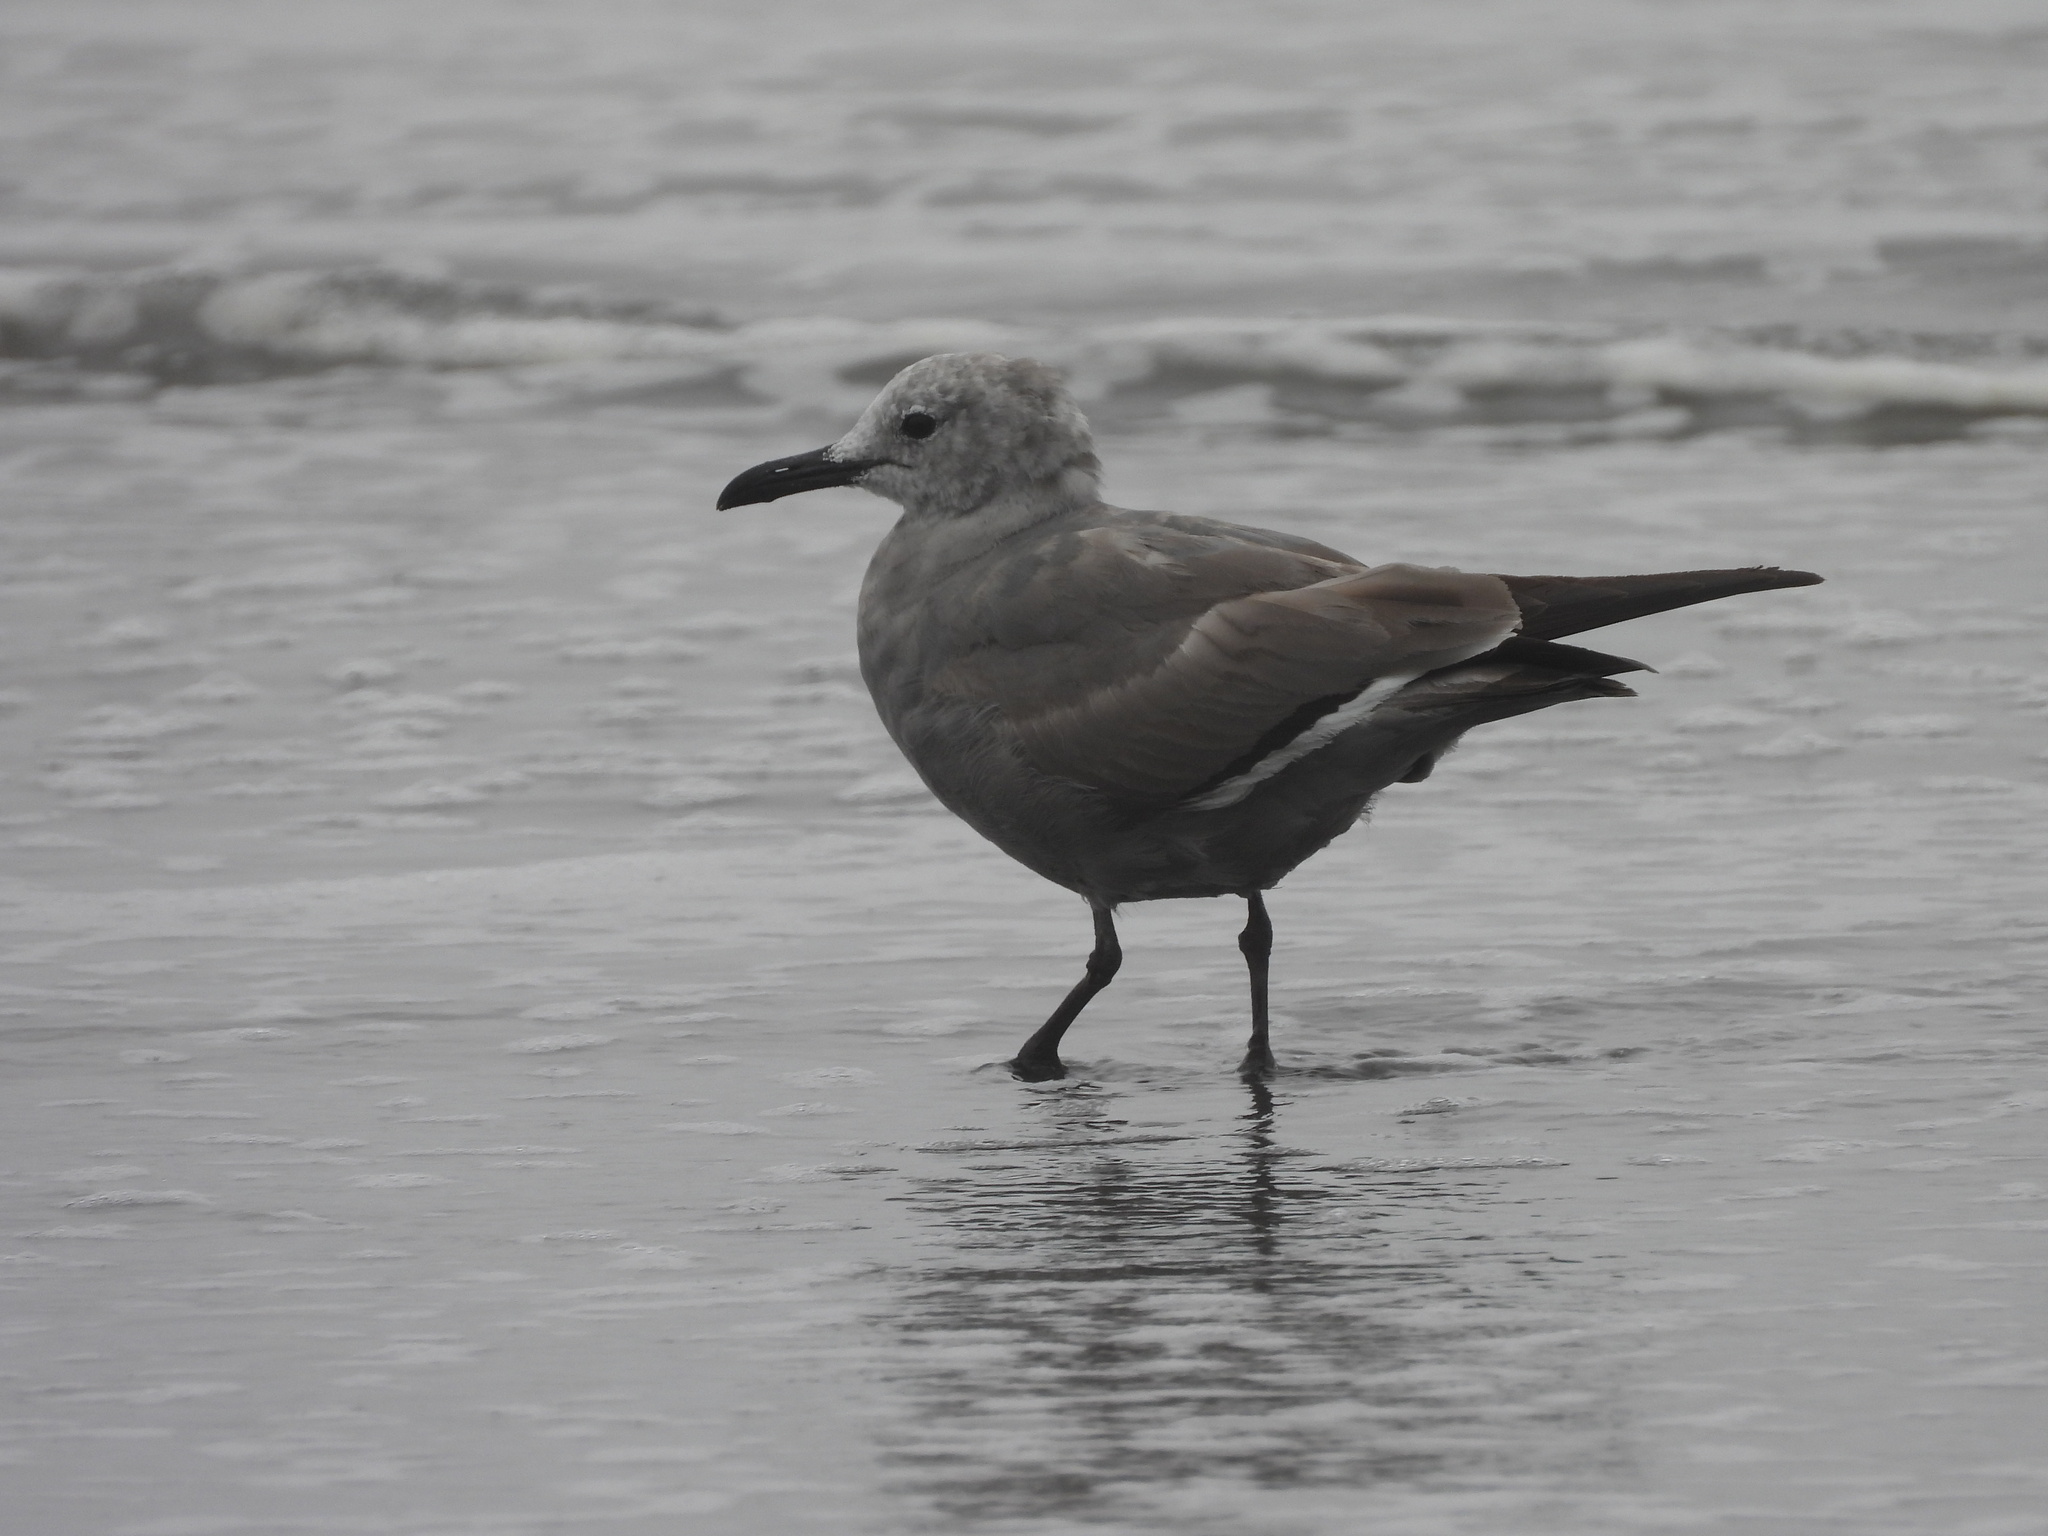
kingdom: Animalia
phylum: Chordata
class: Aves
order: Charadriiformes
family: Laridae
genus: Leucophaeus
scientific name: Leucophaeus modestus
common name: Gray gull
